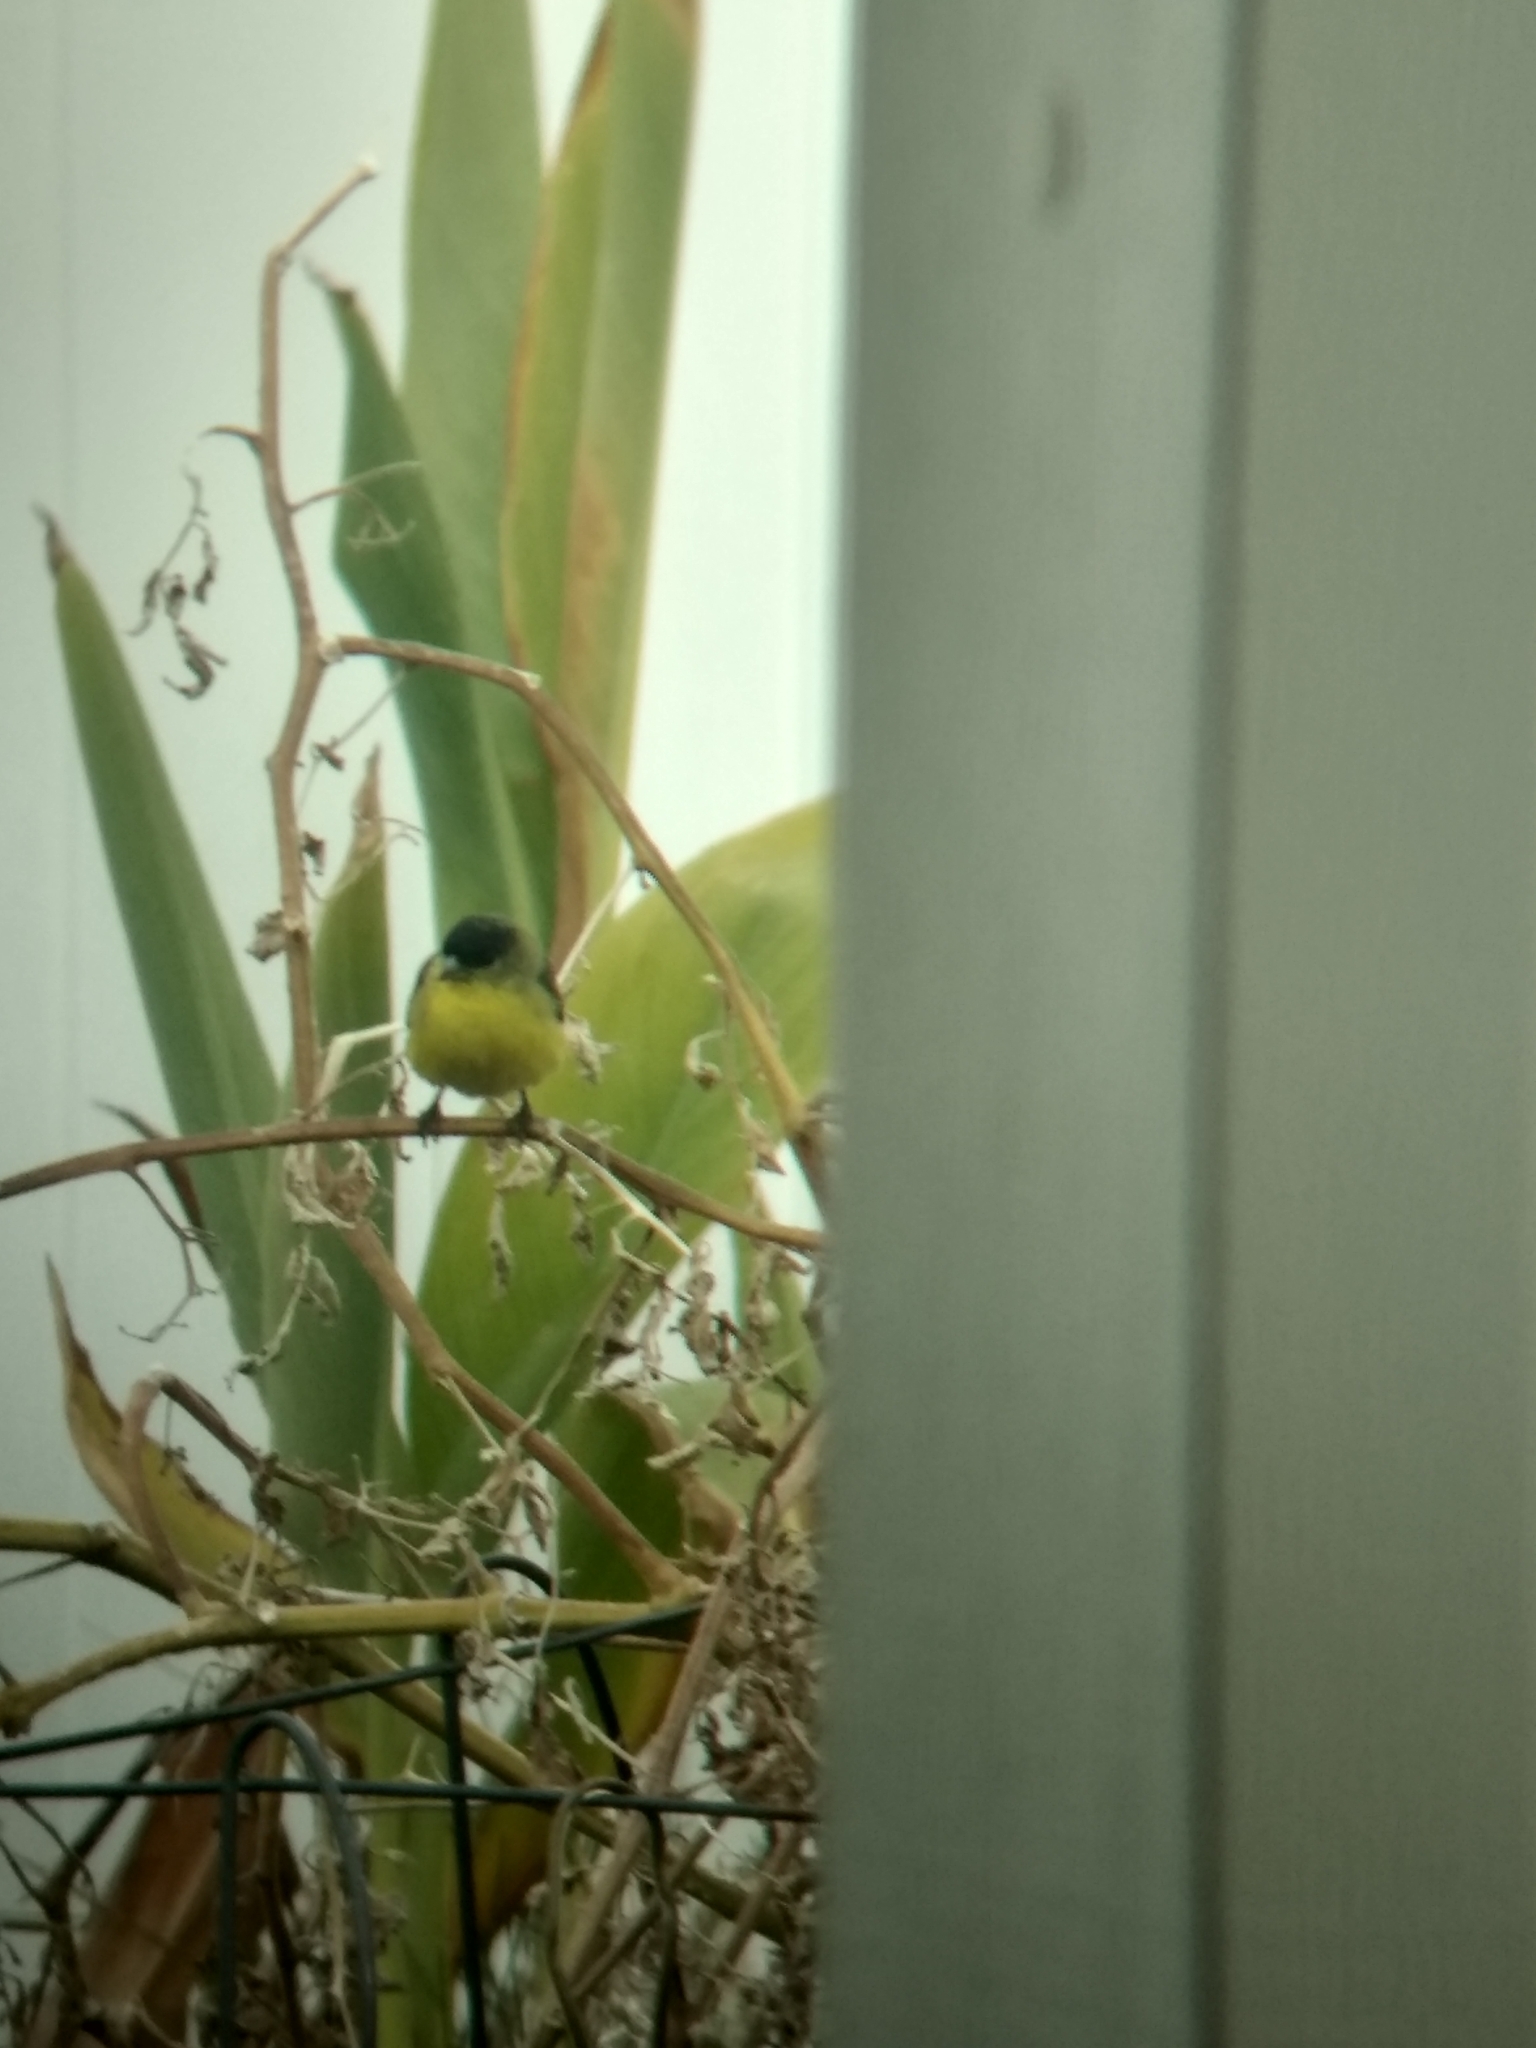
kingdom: Animalia
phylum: Chordata
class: Aves
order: Passeriformes
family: Fringillidae
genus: Spinus
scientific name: Spinus psaltria
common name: Lesser goldfinch
